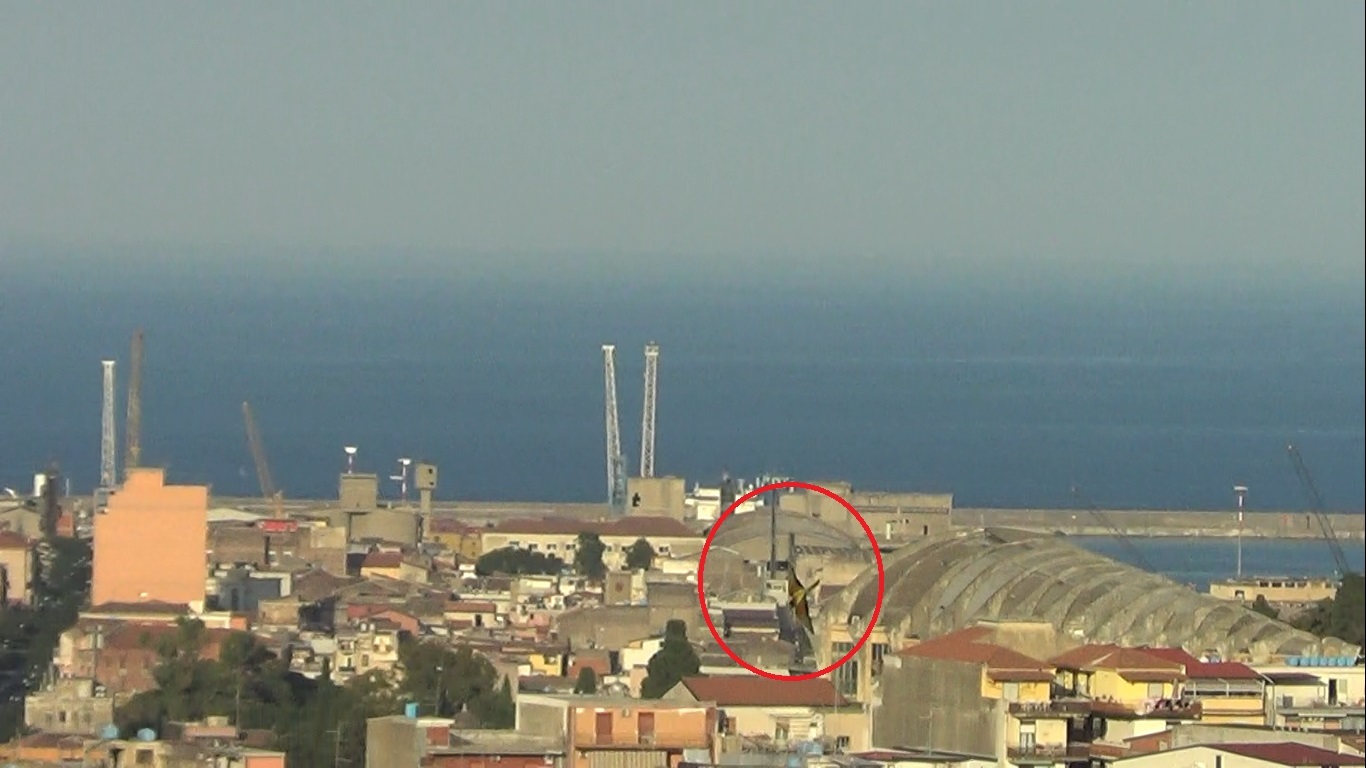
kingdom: Animalia
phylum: Chordata
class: Aves
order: Coraciiformes
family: Meropidae
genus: Merops
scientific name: Merops apiaster
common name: European bee-eater
